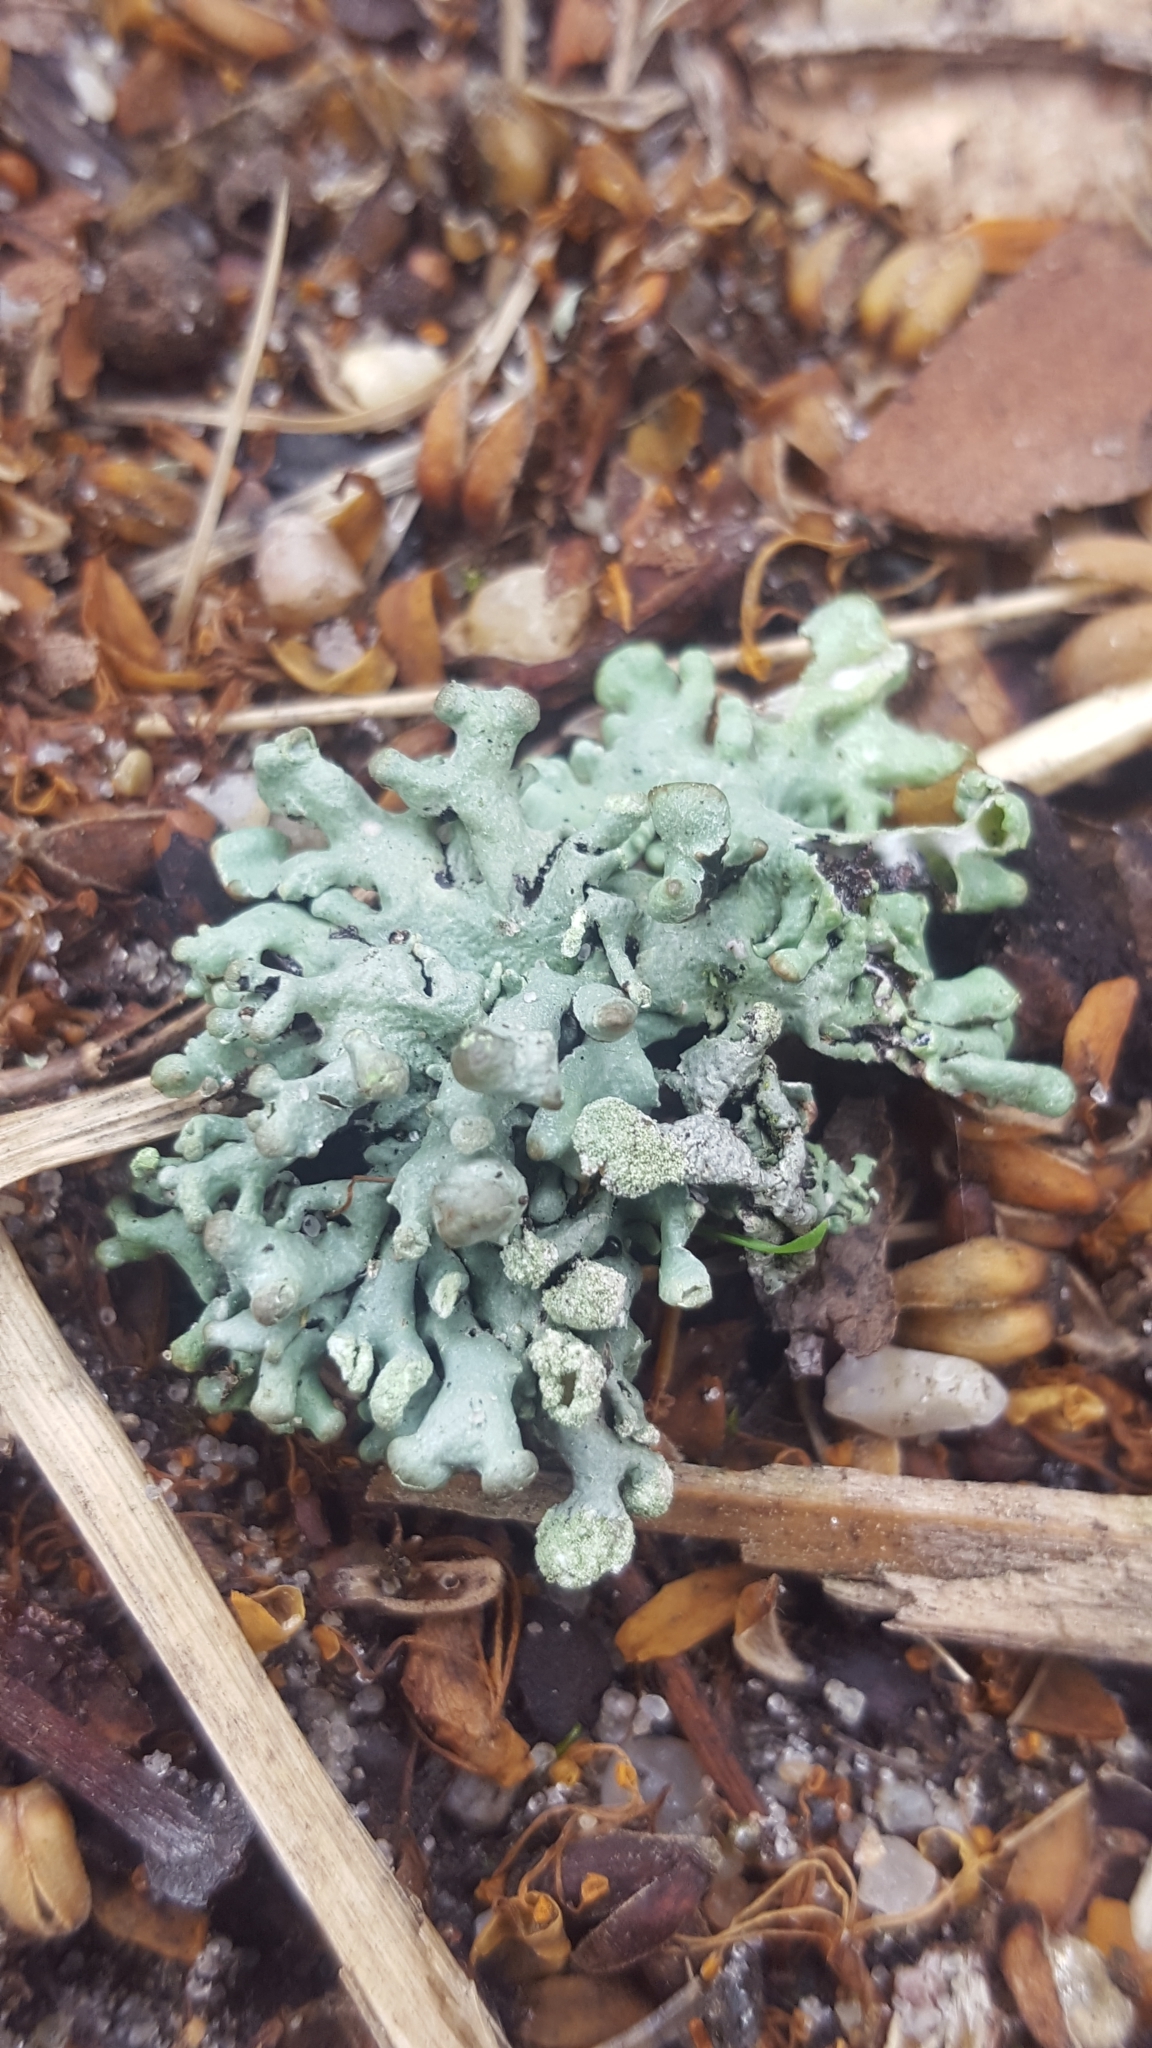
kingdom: Fungi
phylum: Ascomycota
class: Lecanoromycetes
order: Lecanorales
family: Parmeliaceae
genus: Hypogymnia
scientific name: Hypogymnia tubulosa
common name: Powder-headed tube lichen
